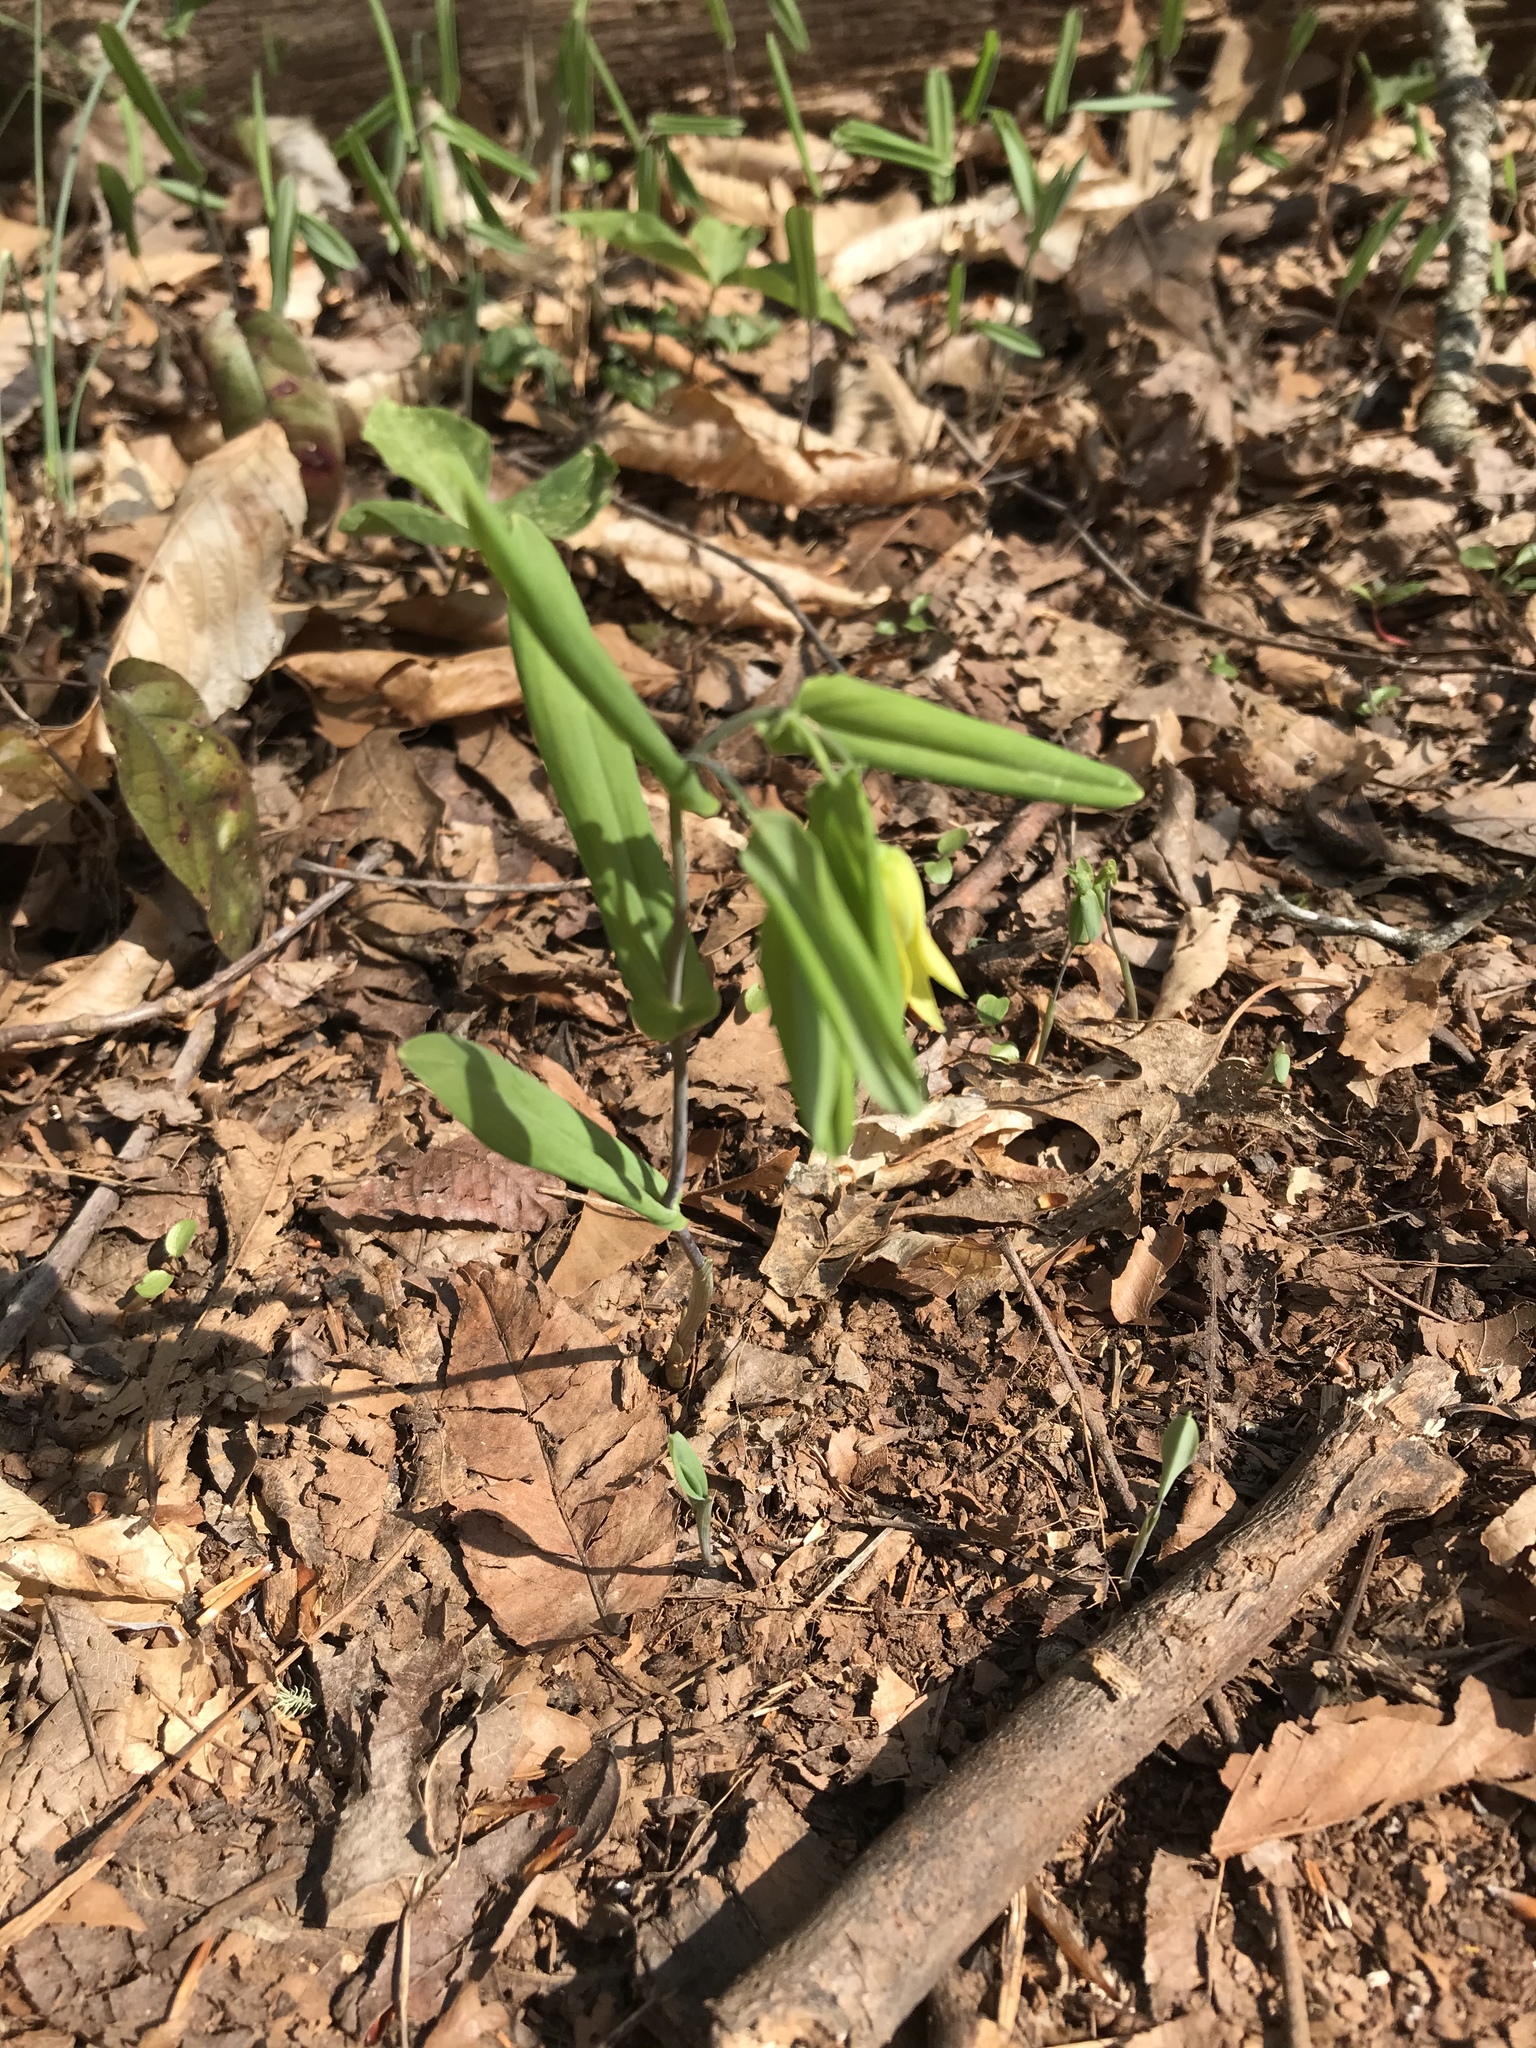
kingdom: Plantae
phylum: Tracheophyta
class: Liliopsida
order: Liliales
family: Colchicaceae
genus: Uvularia
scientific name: Uvularia perfoliata
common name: Perfoliate bellwort
